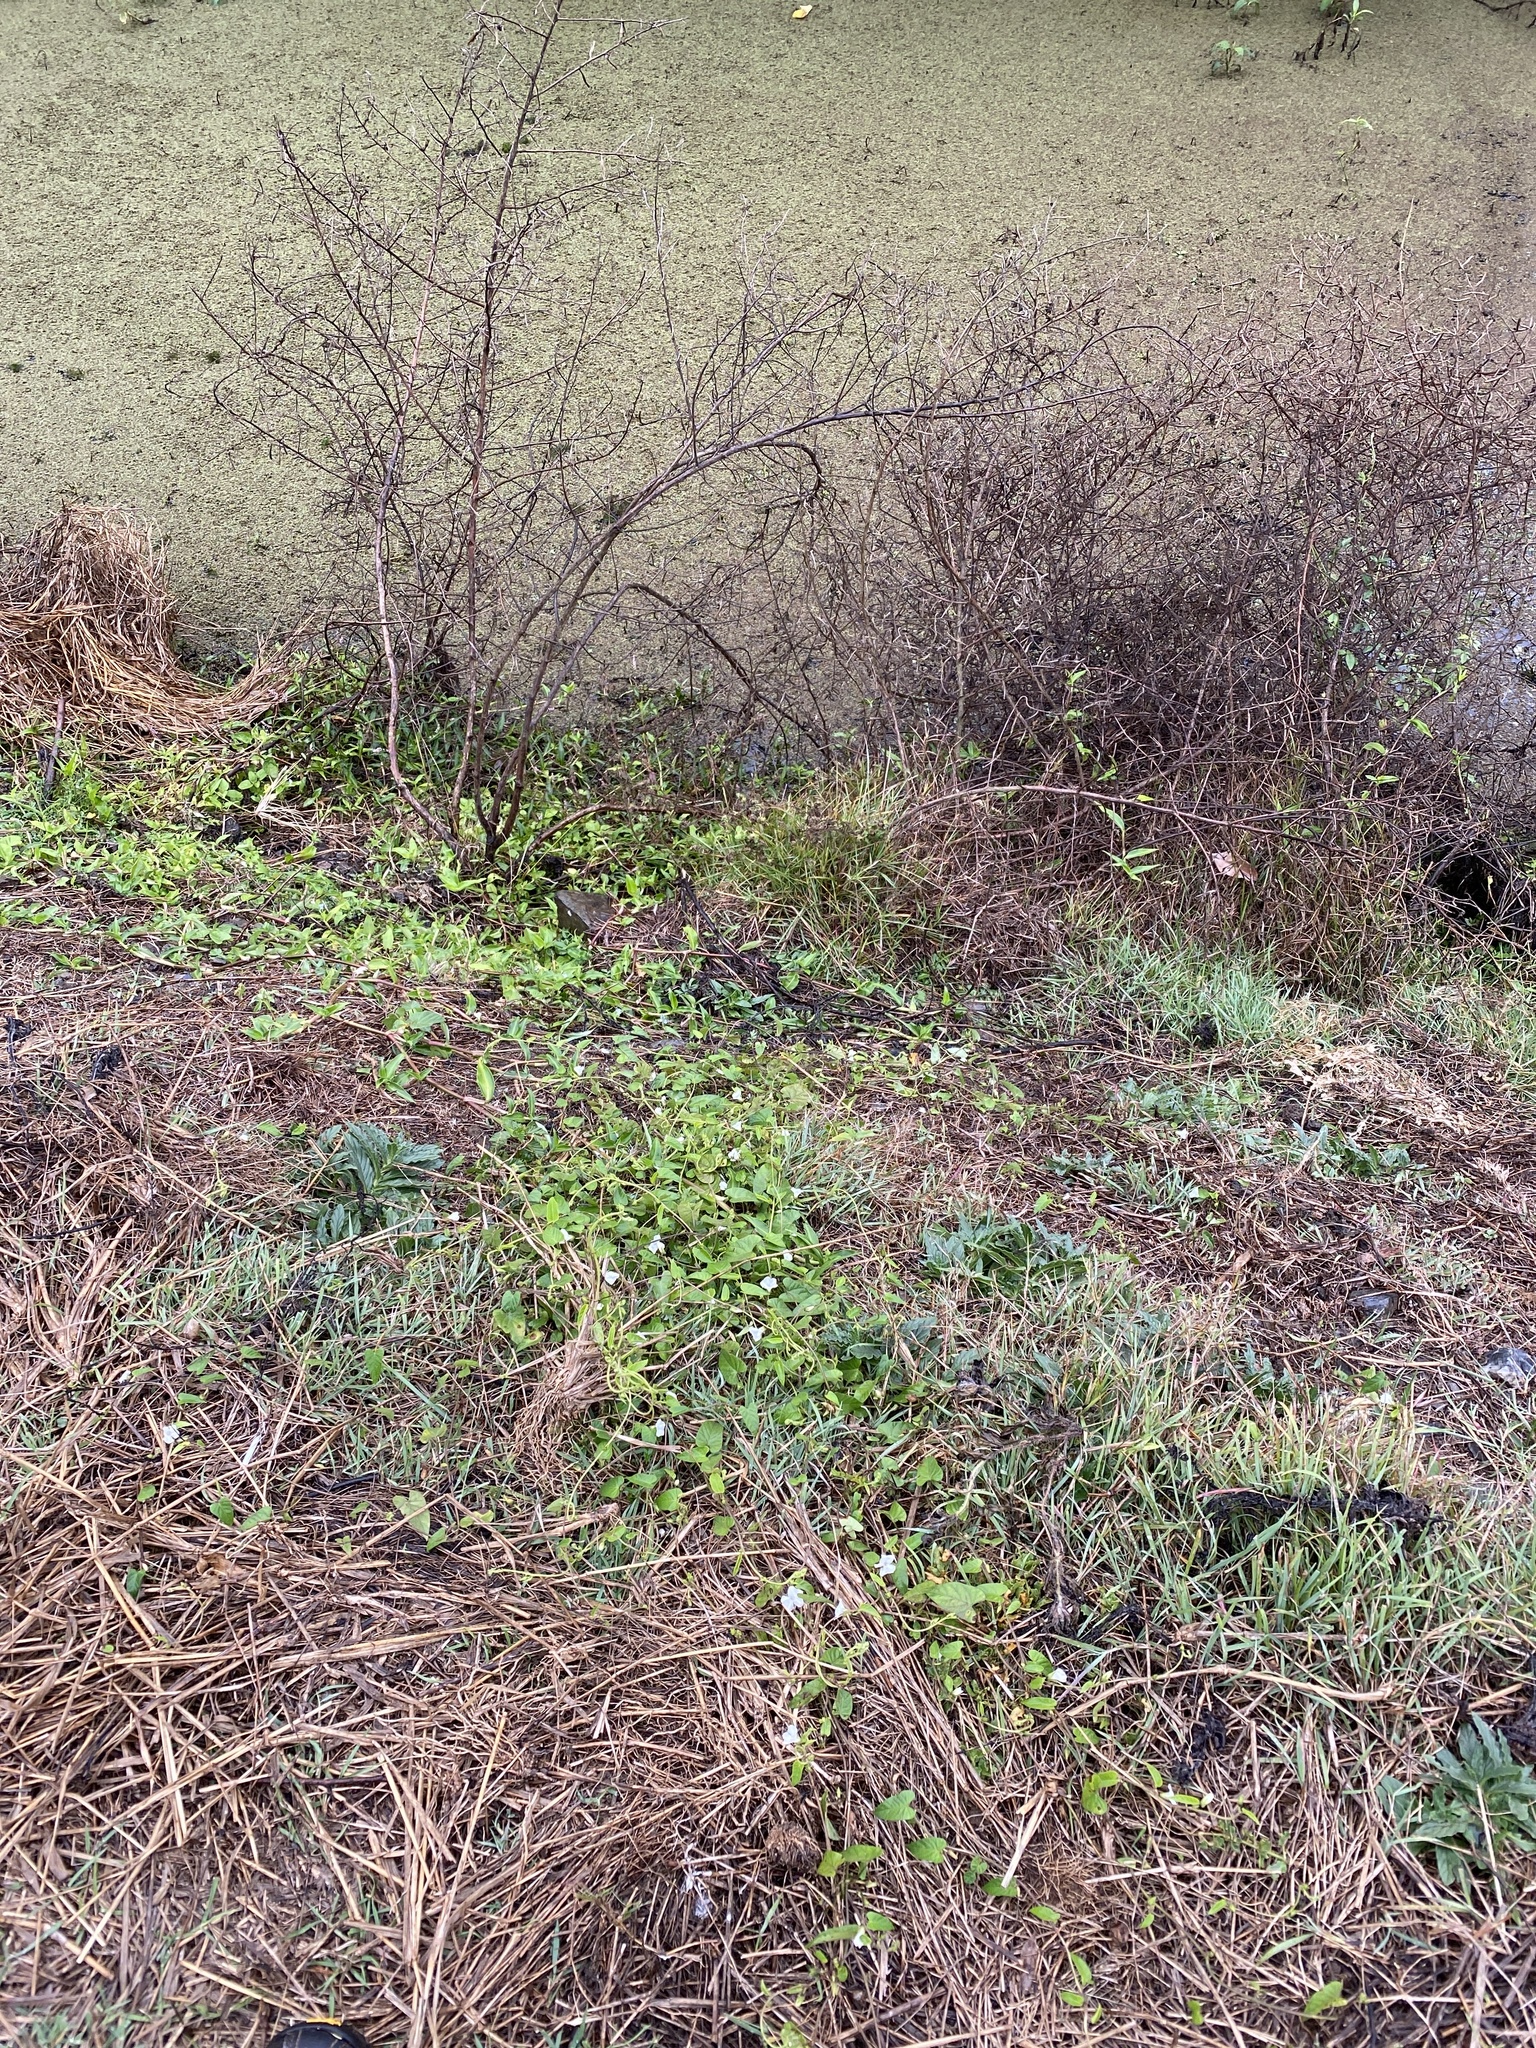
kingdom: Plantae
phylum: Tracheophyta
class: Magnoliopsida
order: Solanales
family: Convolvulaceae
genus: Ipomoea
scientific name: Ipomoea biflora
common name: Bellvine
